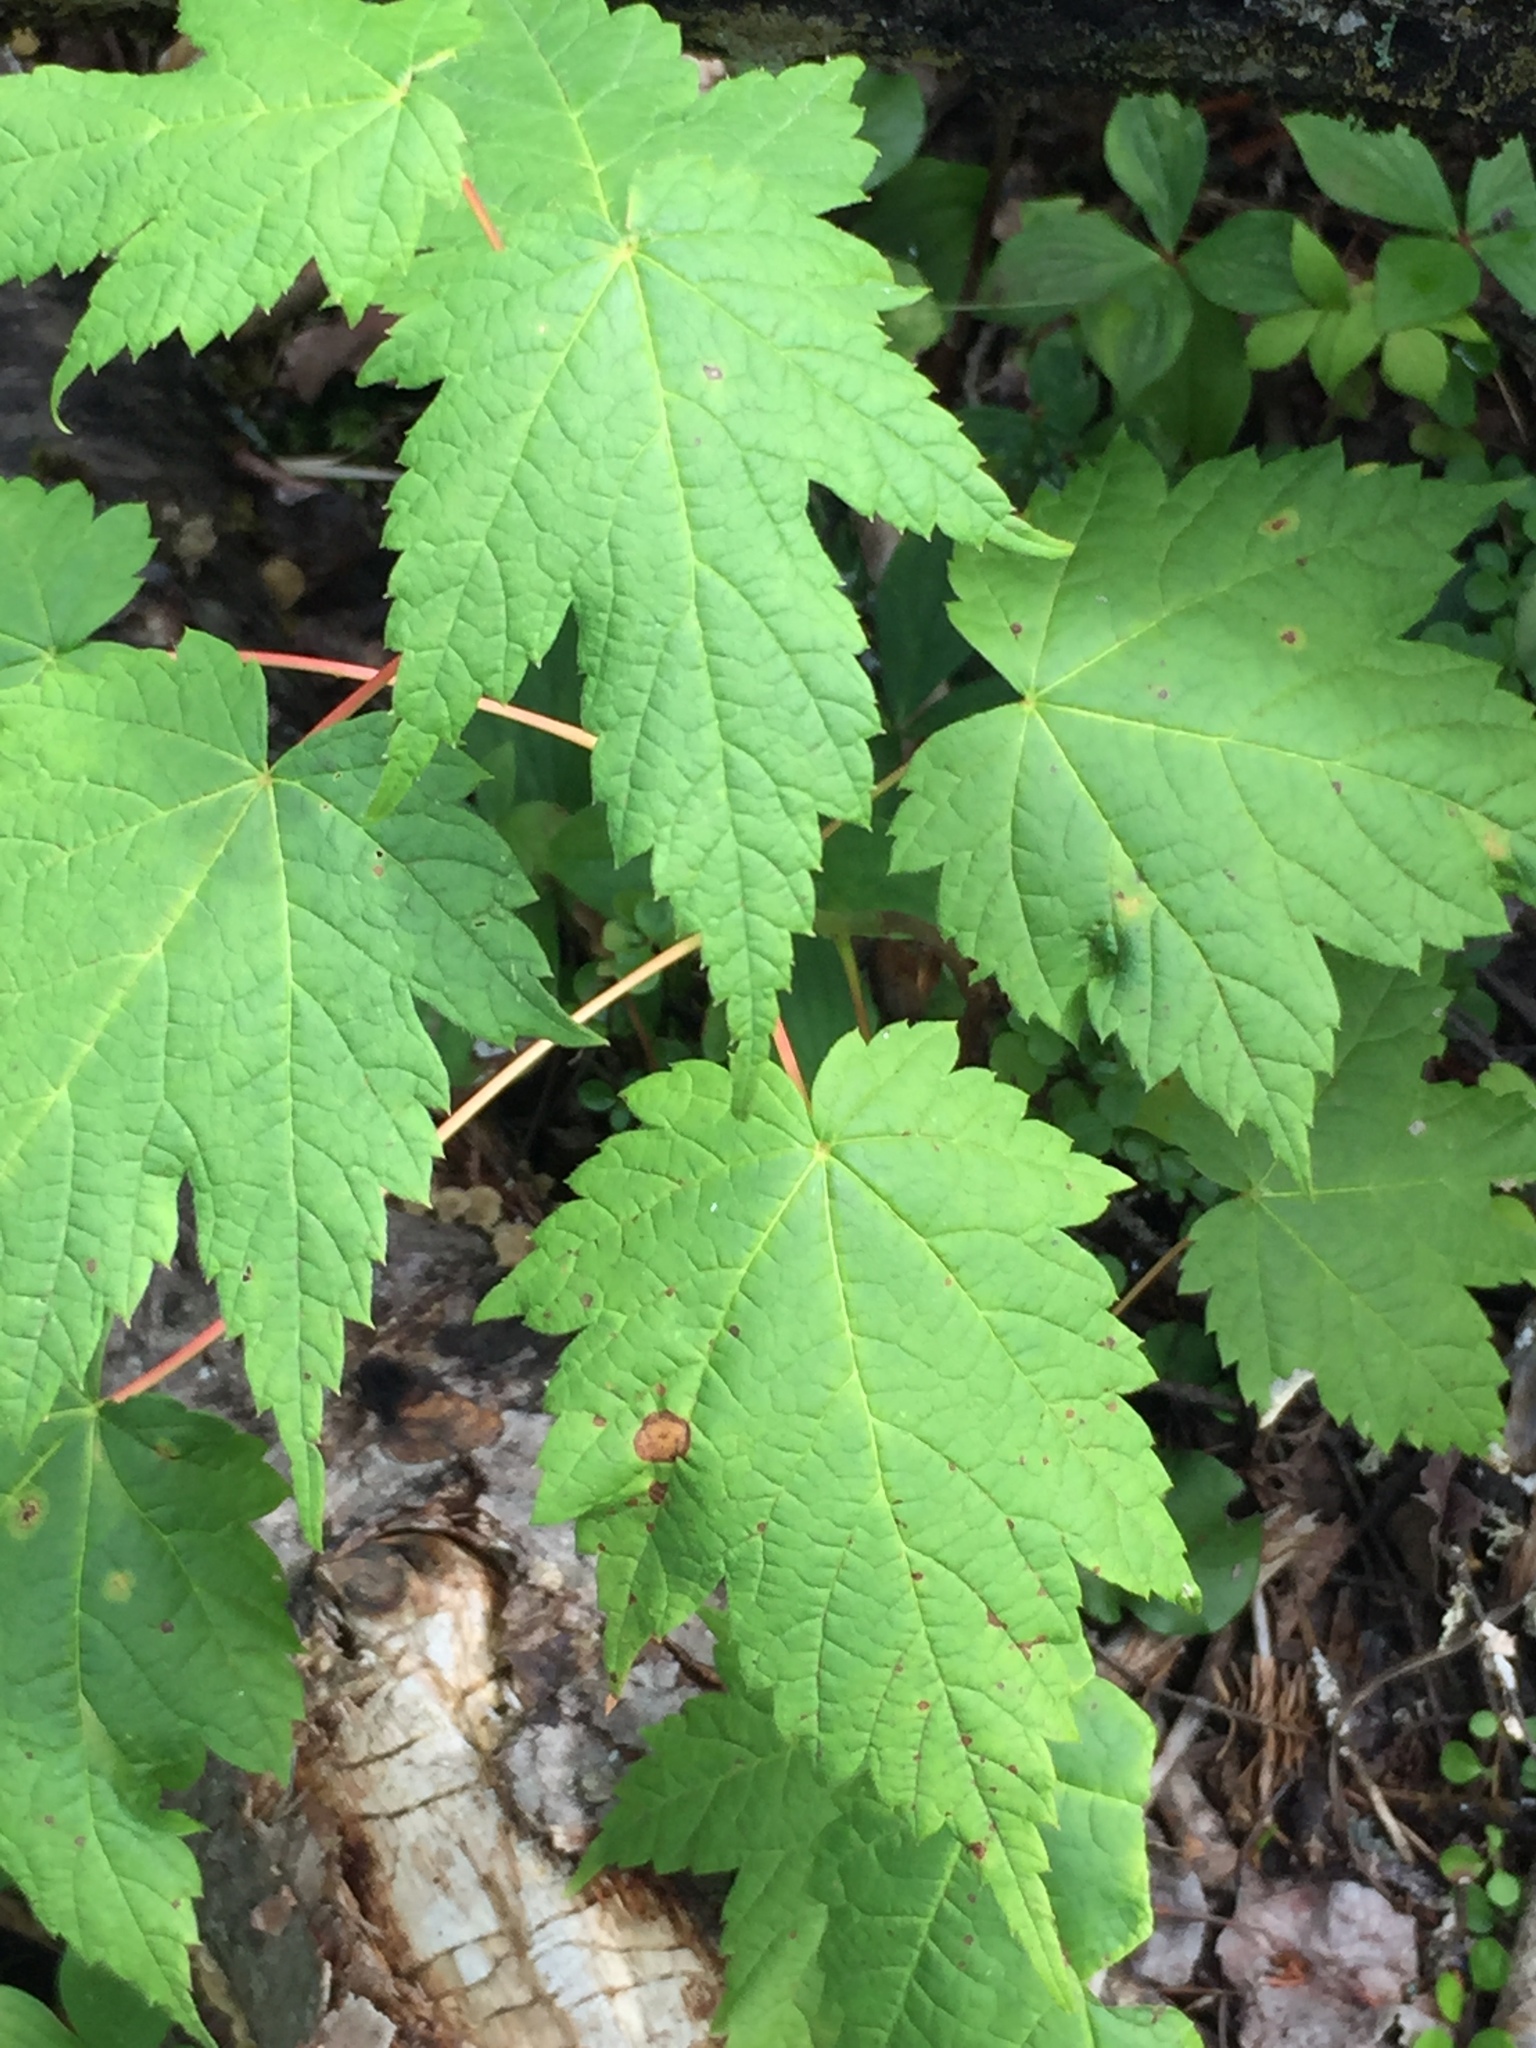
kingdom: Plantae
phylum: Tracheophyta
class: Magnoliopsida
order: Sapindales
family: Sapindaceae
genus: Acer
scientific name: Acer spicatum
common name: Mountain maple
